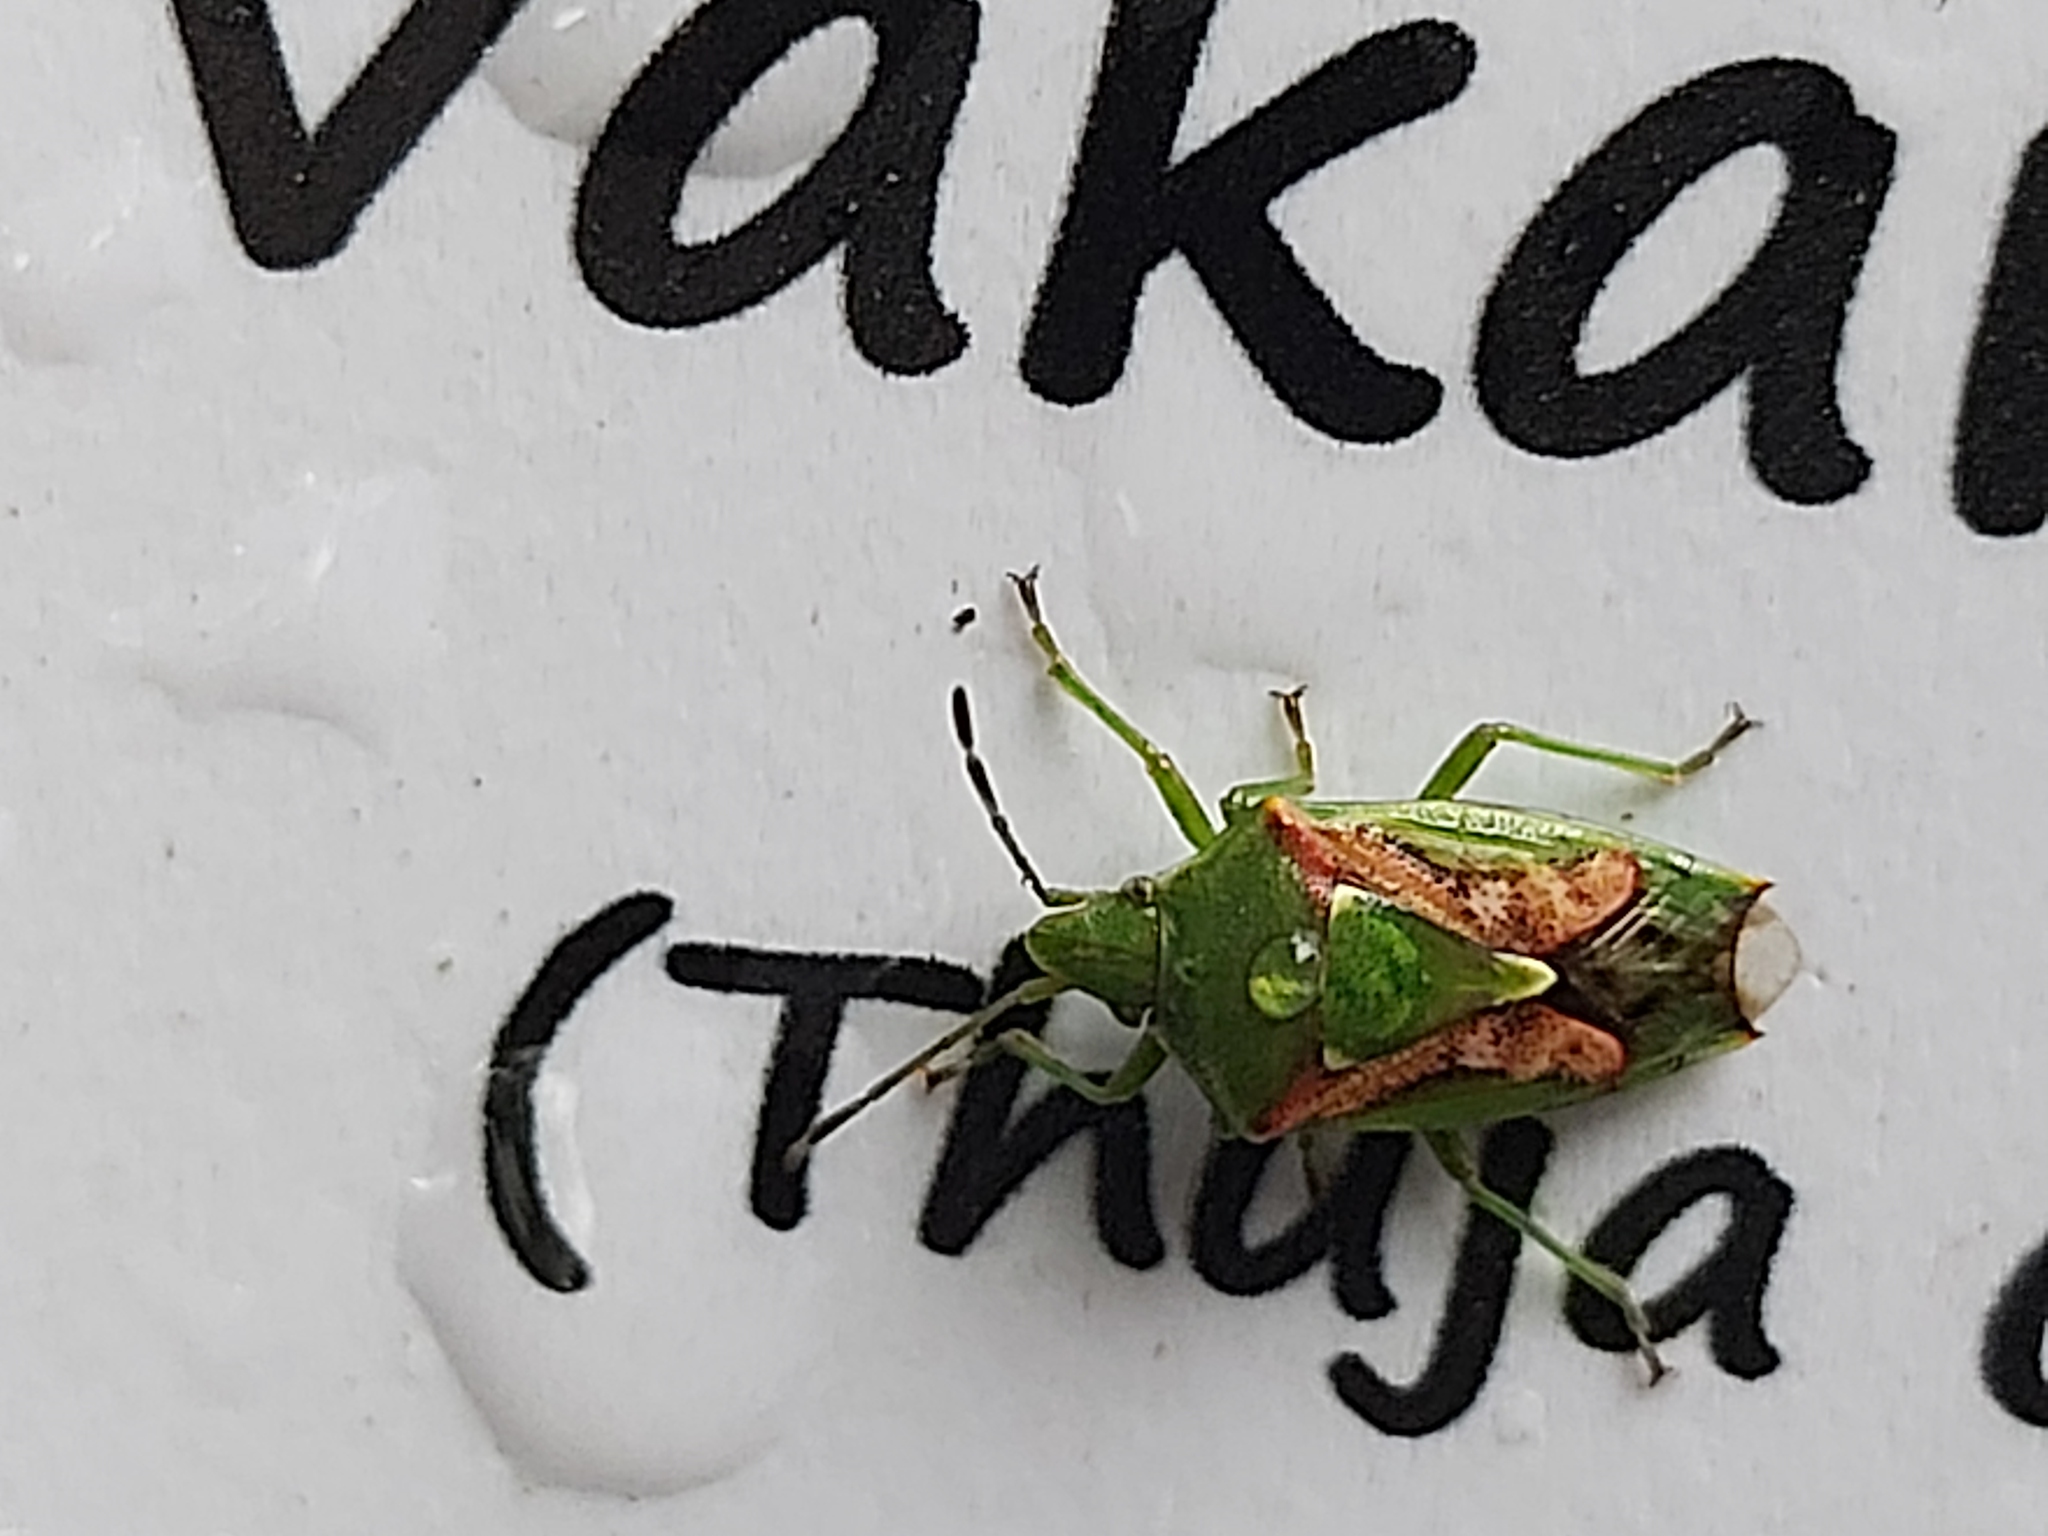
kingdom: Animalia
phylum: Arthropoda
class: Insecta
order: Hemiptera
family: Acanthosomatidae
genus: Cyphostethus
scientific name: Cyphostethus tristriatus
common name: Juniper shieldbug
